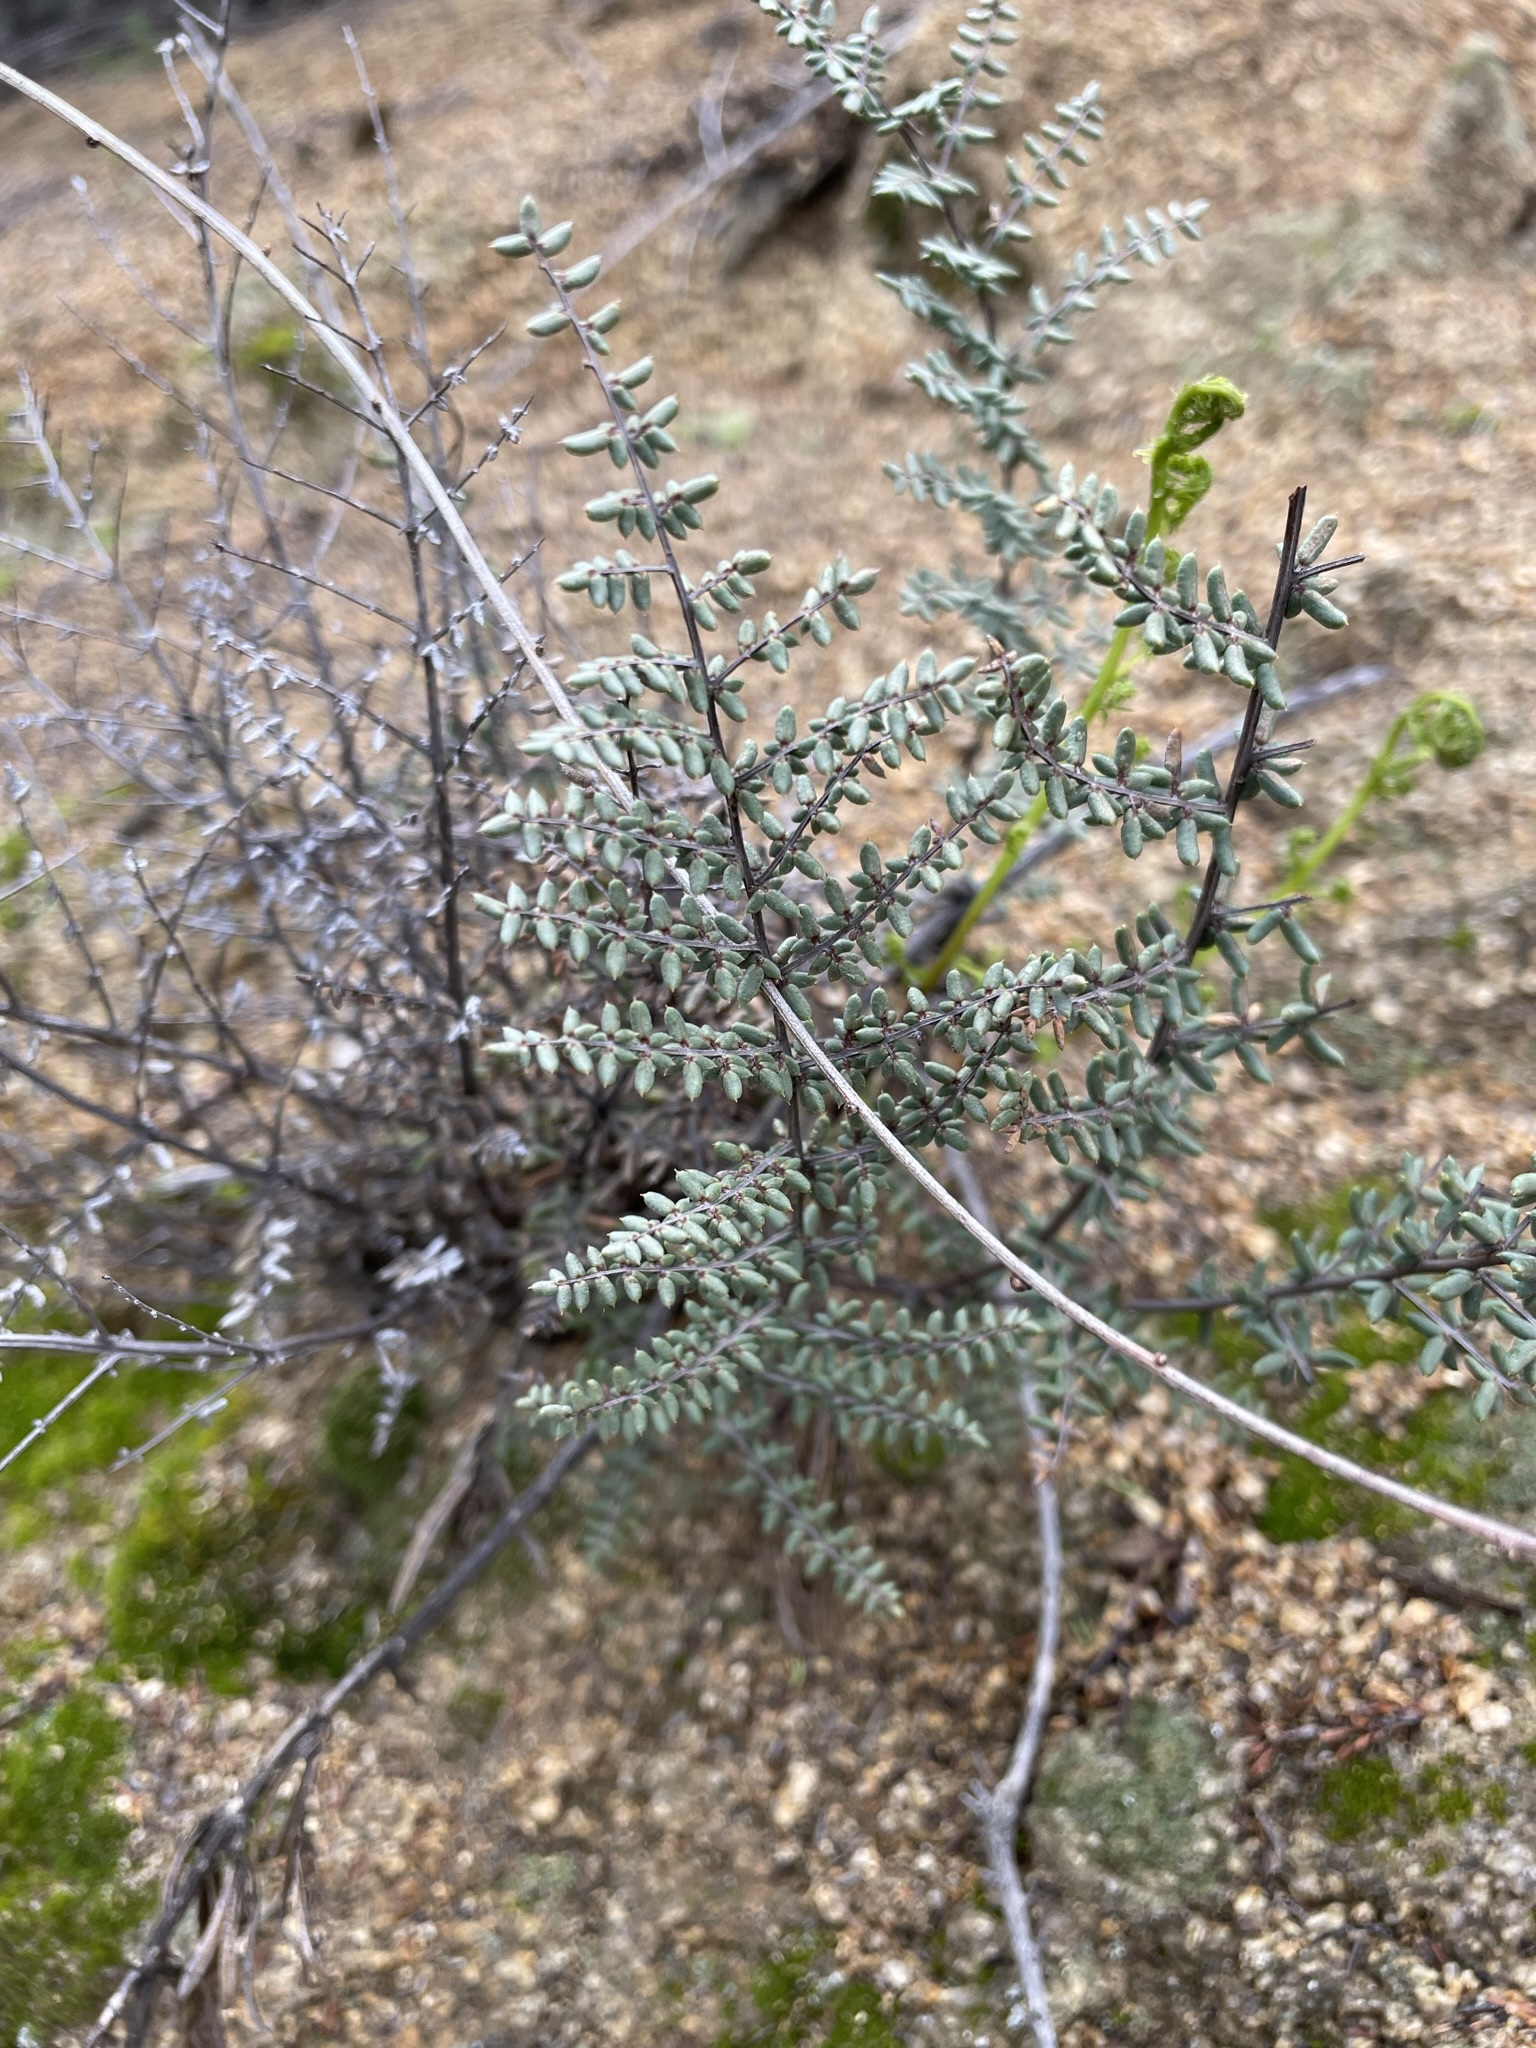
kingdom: Plantae
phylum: Tracheophyta
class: Polypodiopsida
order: Polypodiales
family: Pteridaceae
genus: Pellaea
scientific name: Pellaea mucronata
